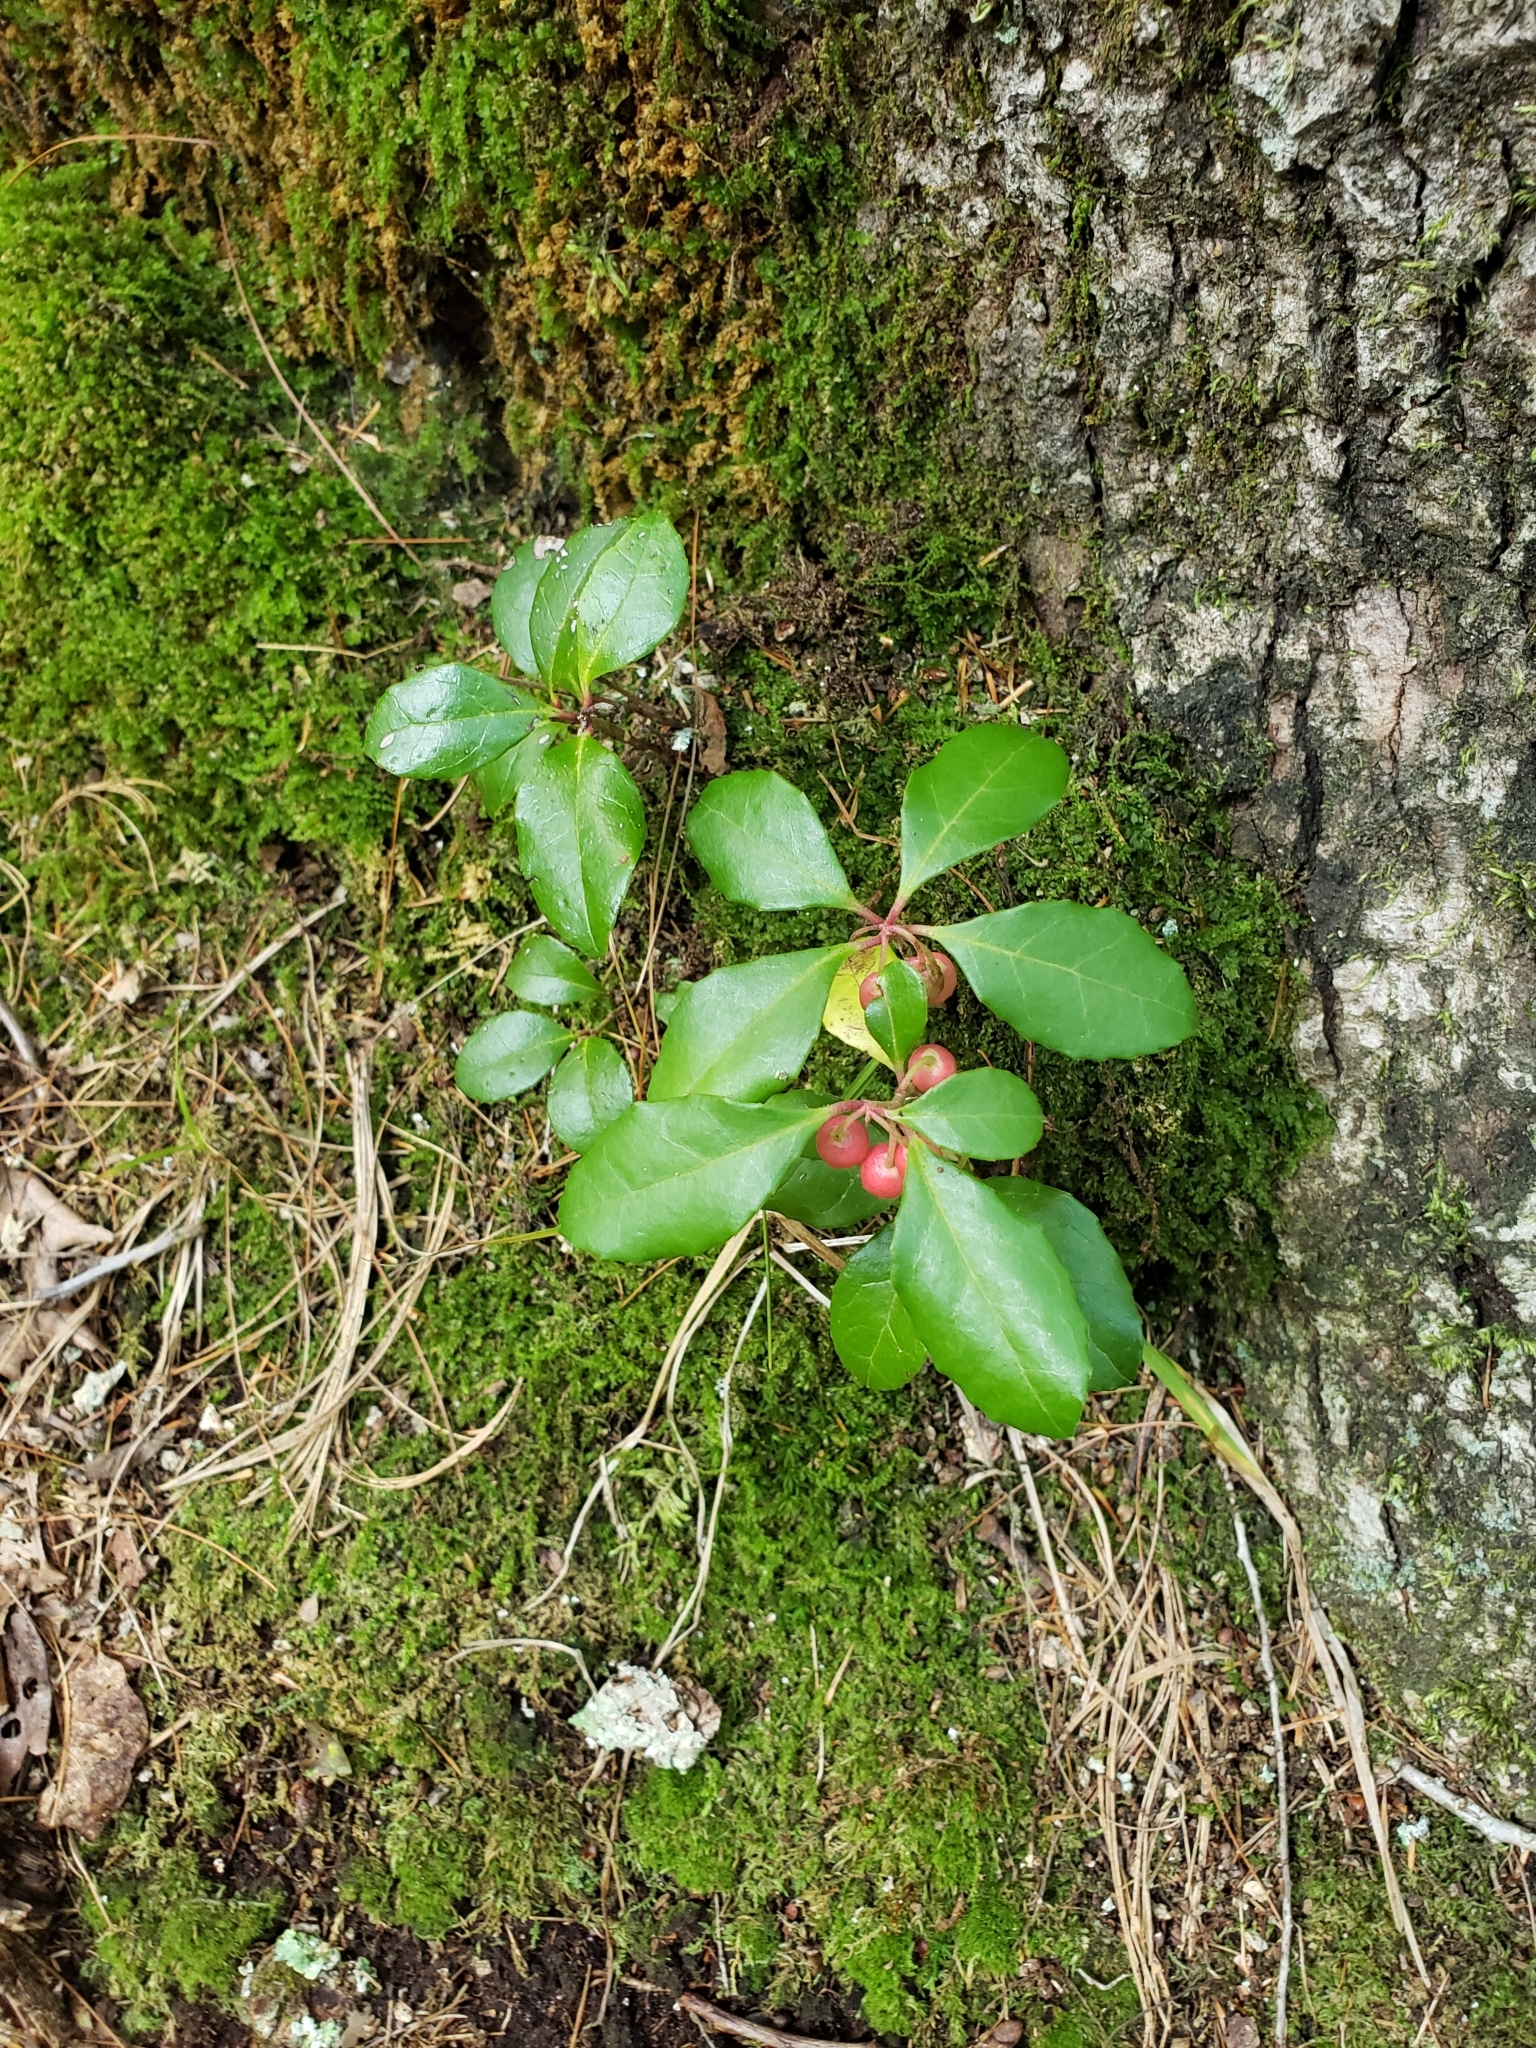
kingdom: Plantae
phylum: Tracheophyta
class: Magnoliopsida
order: Ericales
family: Ericaceae
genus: Gaultheria
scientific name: Gaultheria procumbens
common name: Checkerberry
